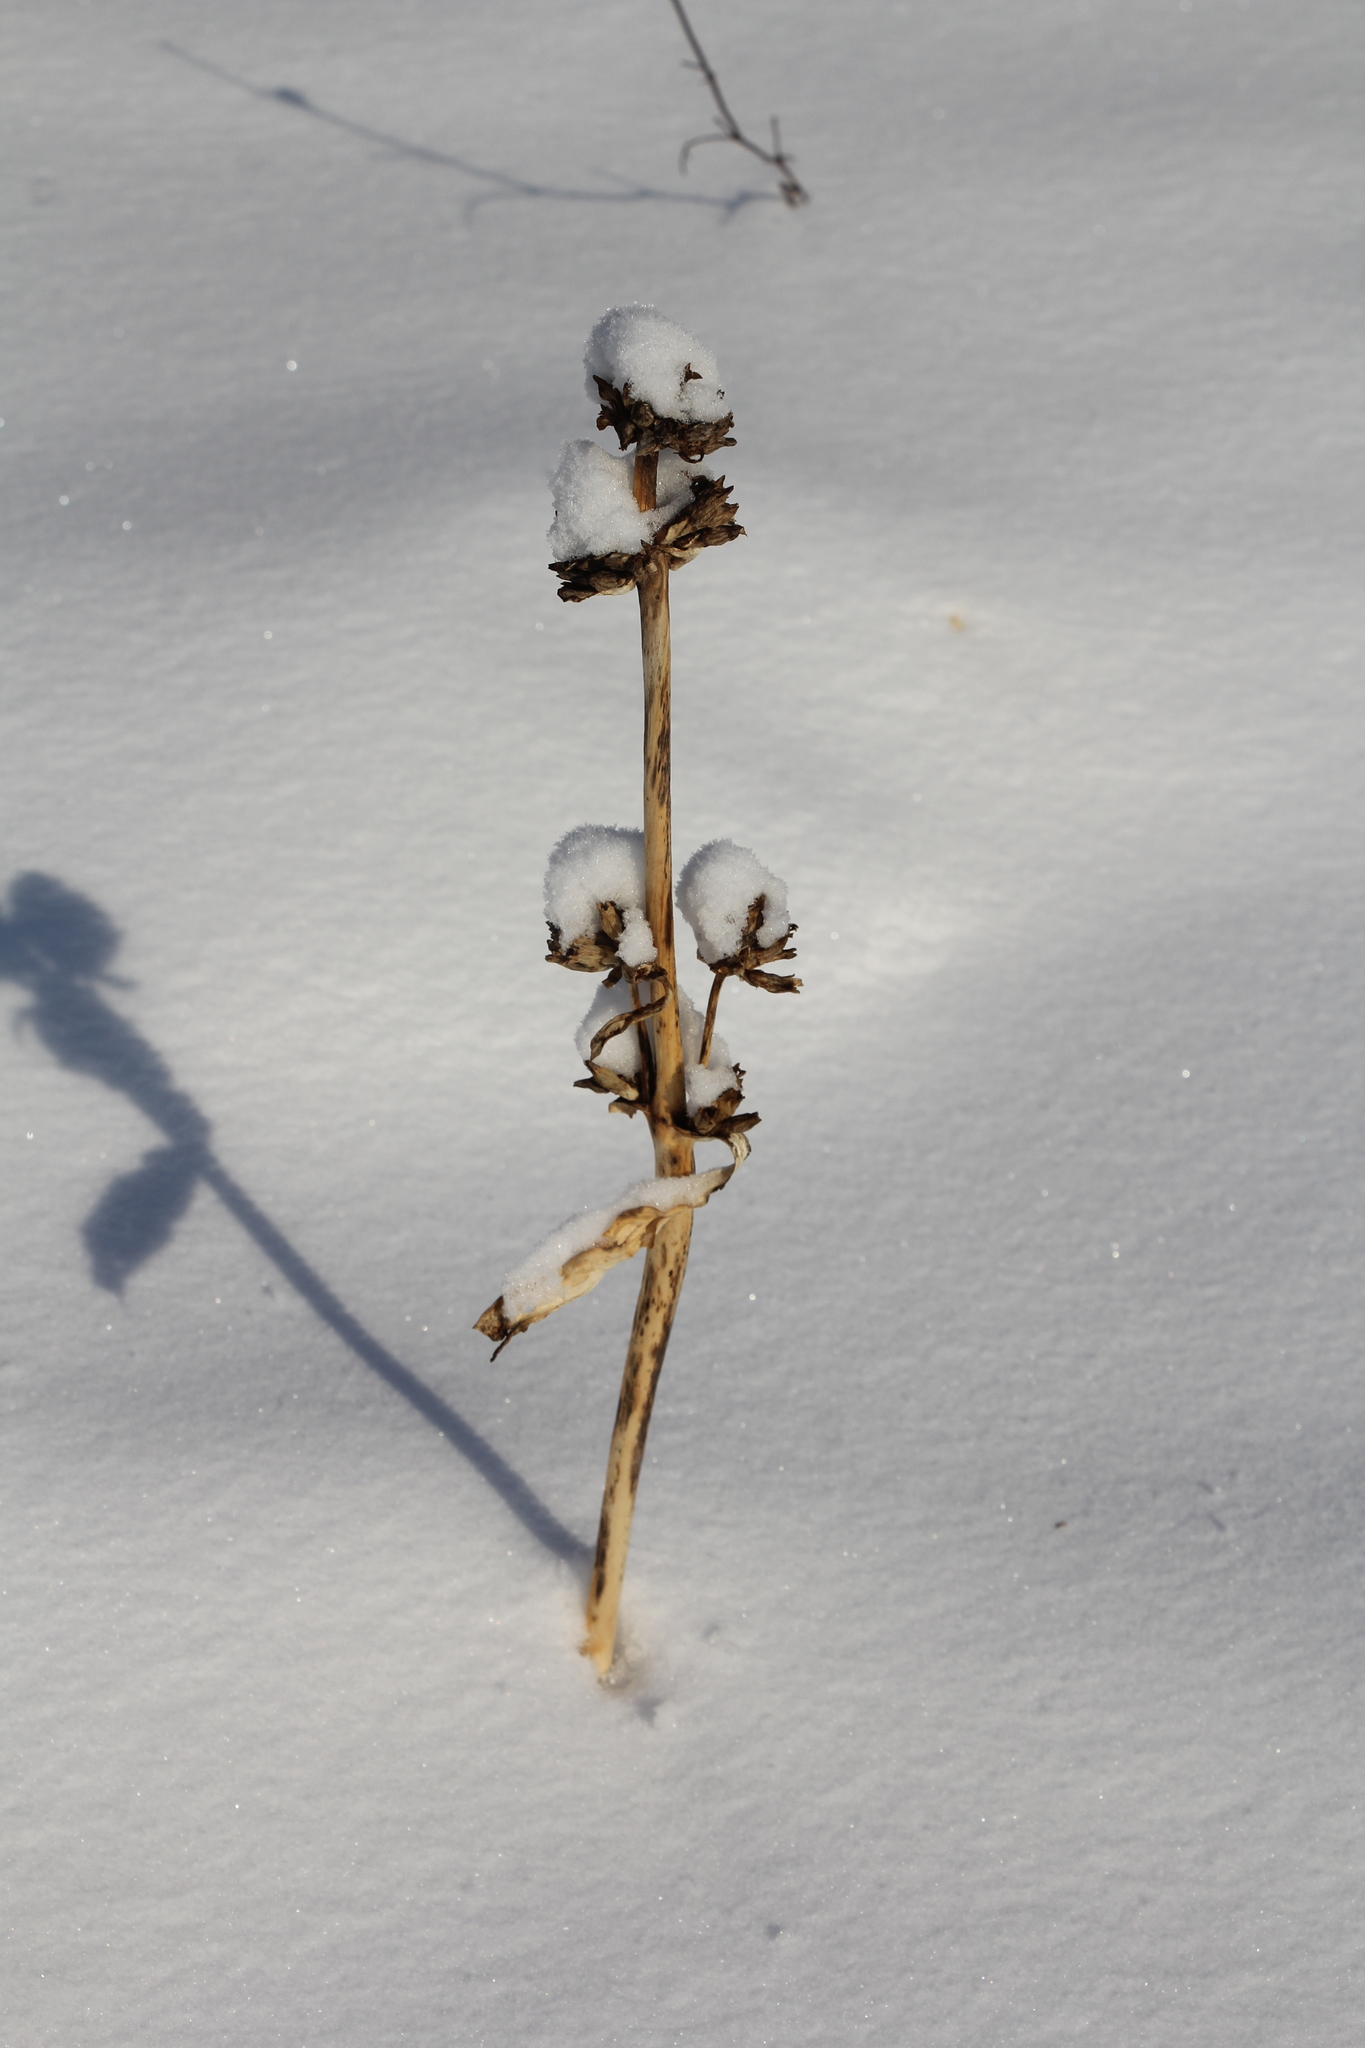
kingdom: Plantae
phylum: Tracheophyta
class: Magnoliopsida
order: Gentianales
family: Gentianaceae
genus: Gentiana
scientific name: Gentiana macrophylla
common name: Large-leaf gentian
